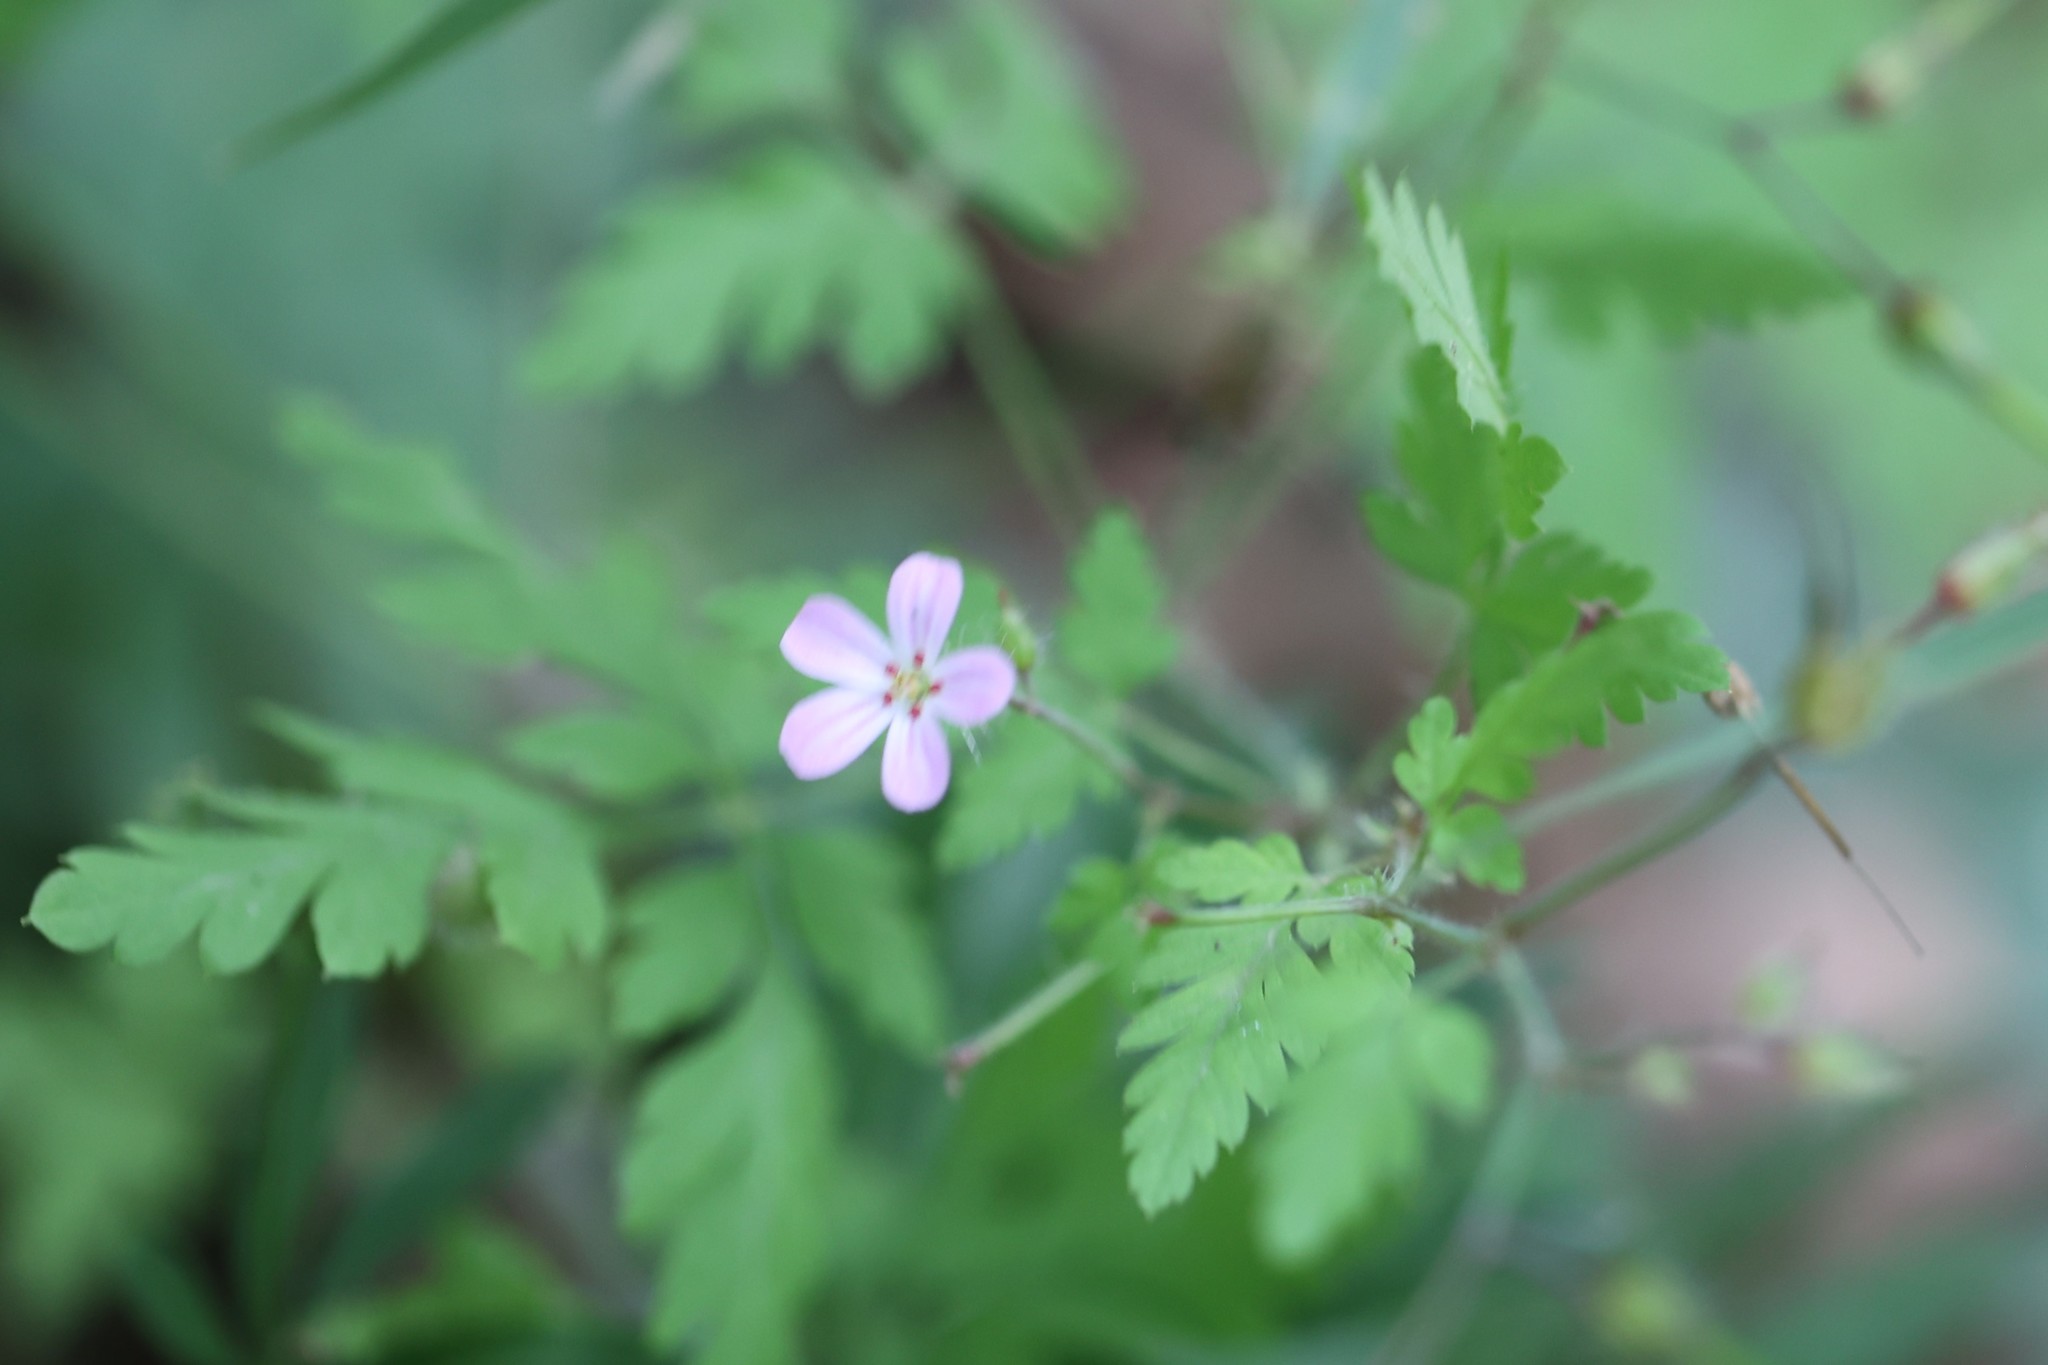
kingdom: Plantae
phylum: Tracheophyta
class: Magnoliopsida
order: Geraniales
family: Geraniaceae
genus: Geranium
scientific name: Geranium robertianum
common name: Herb-robert
